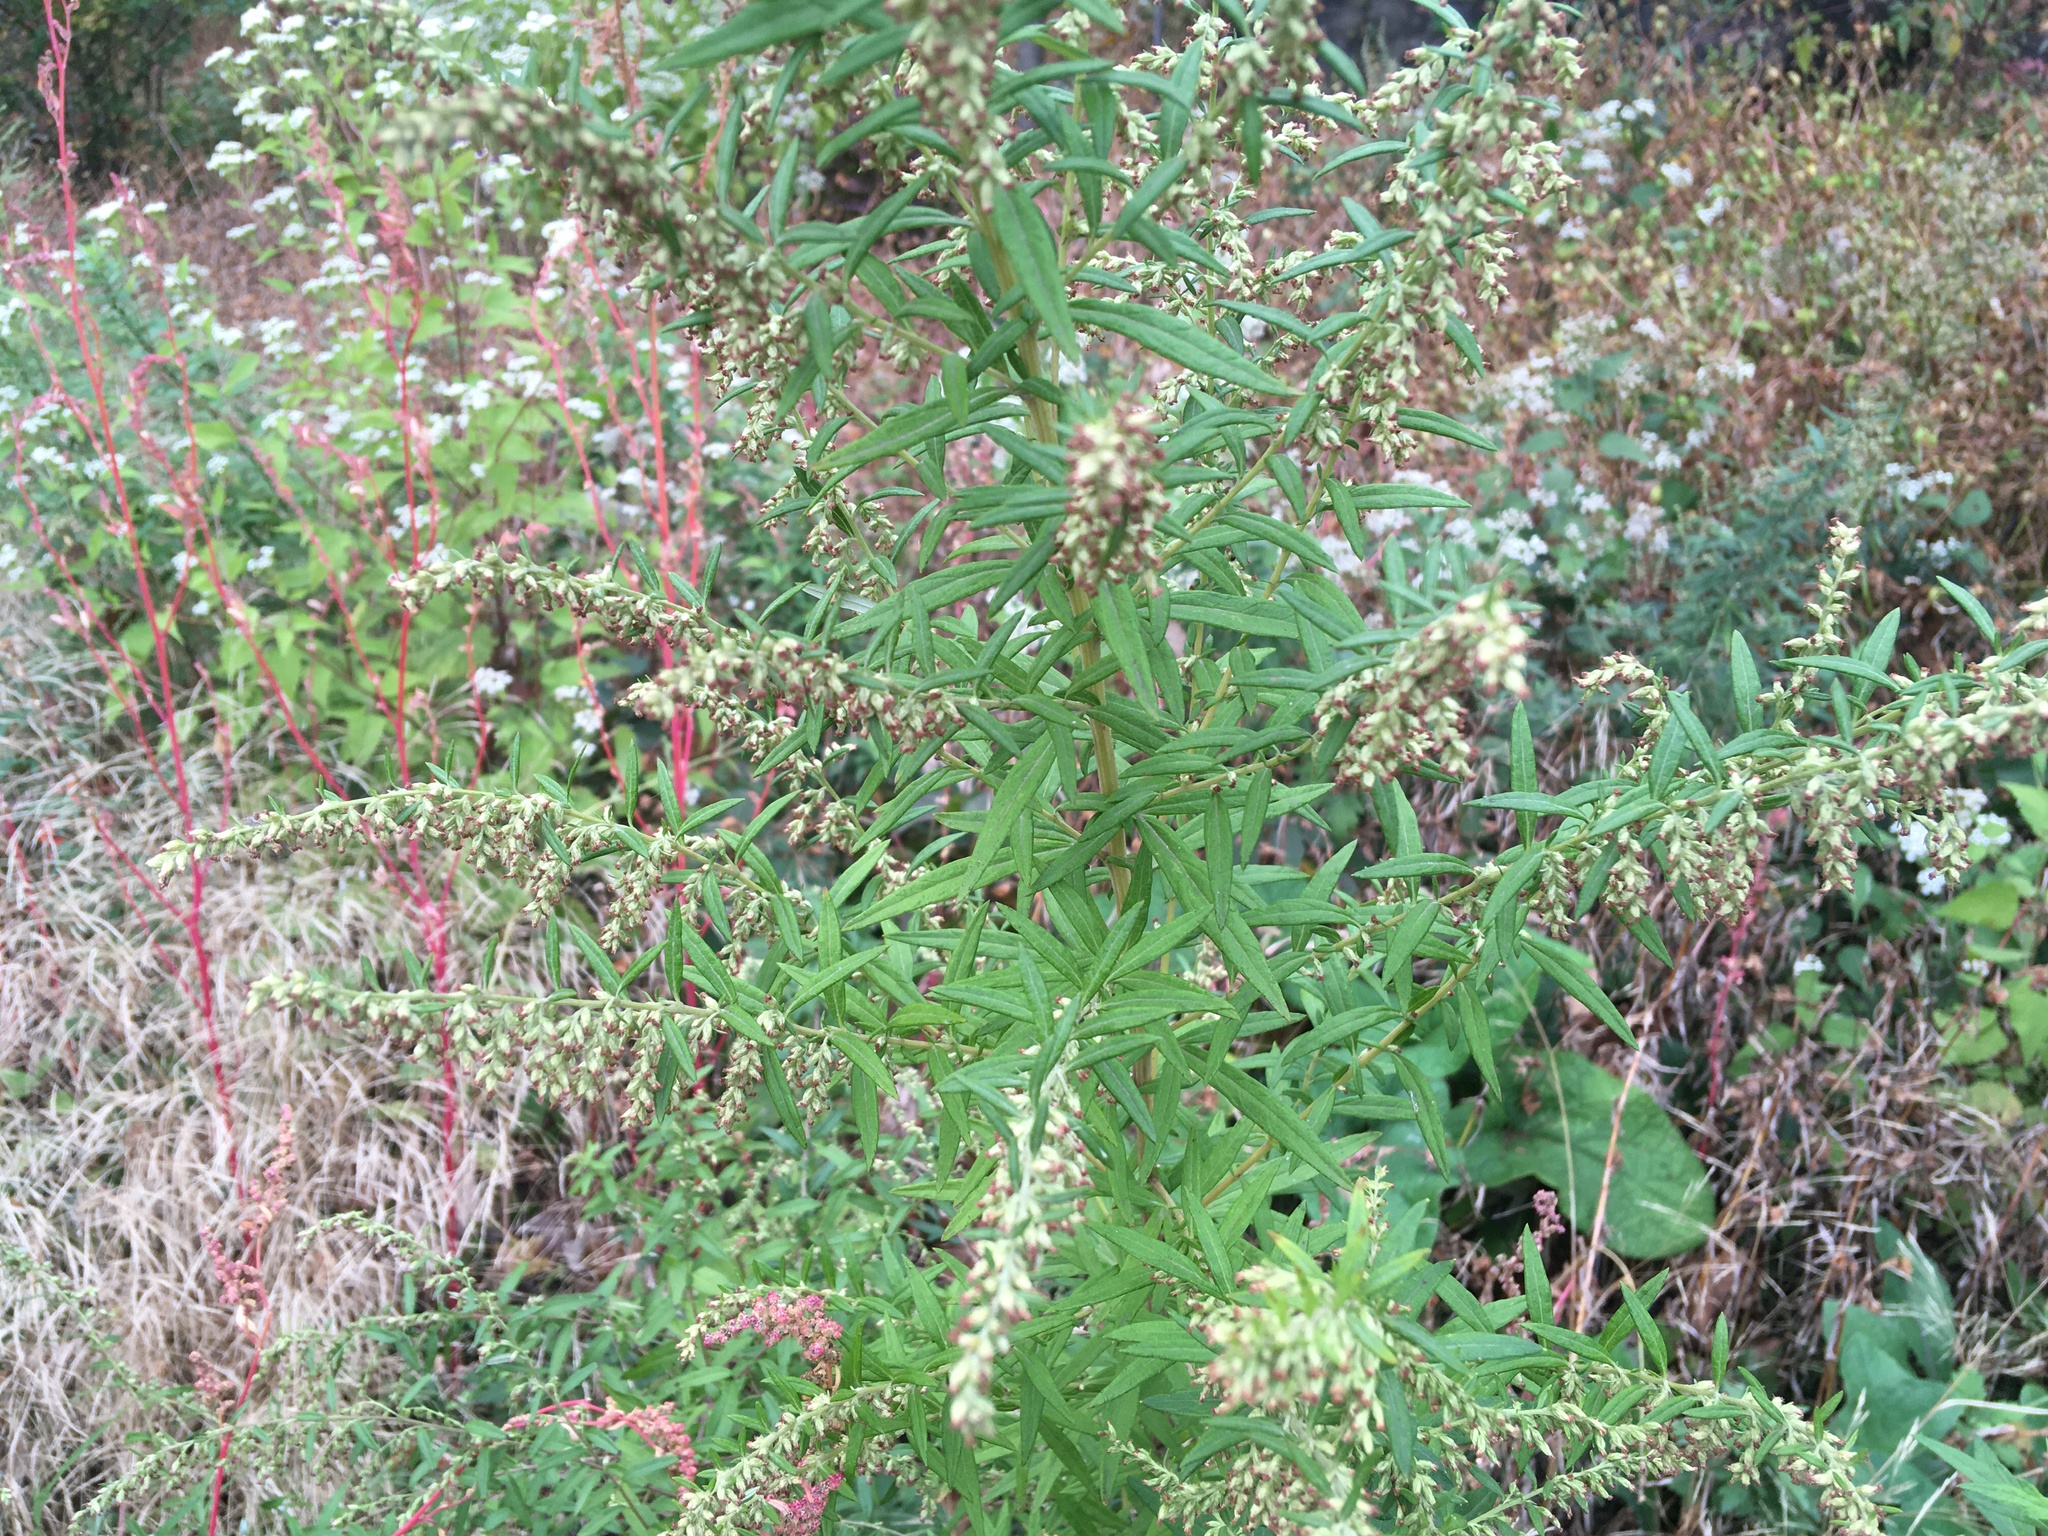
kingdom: Plantae
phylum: Tracheophyta
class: Magnoliopsida
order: Asterales
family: Asteraceae
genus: Artemisia
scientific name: Artemisia vulgaris
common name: Mugwort
